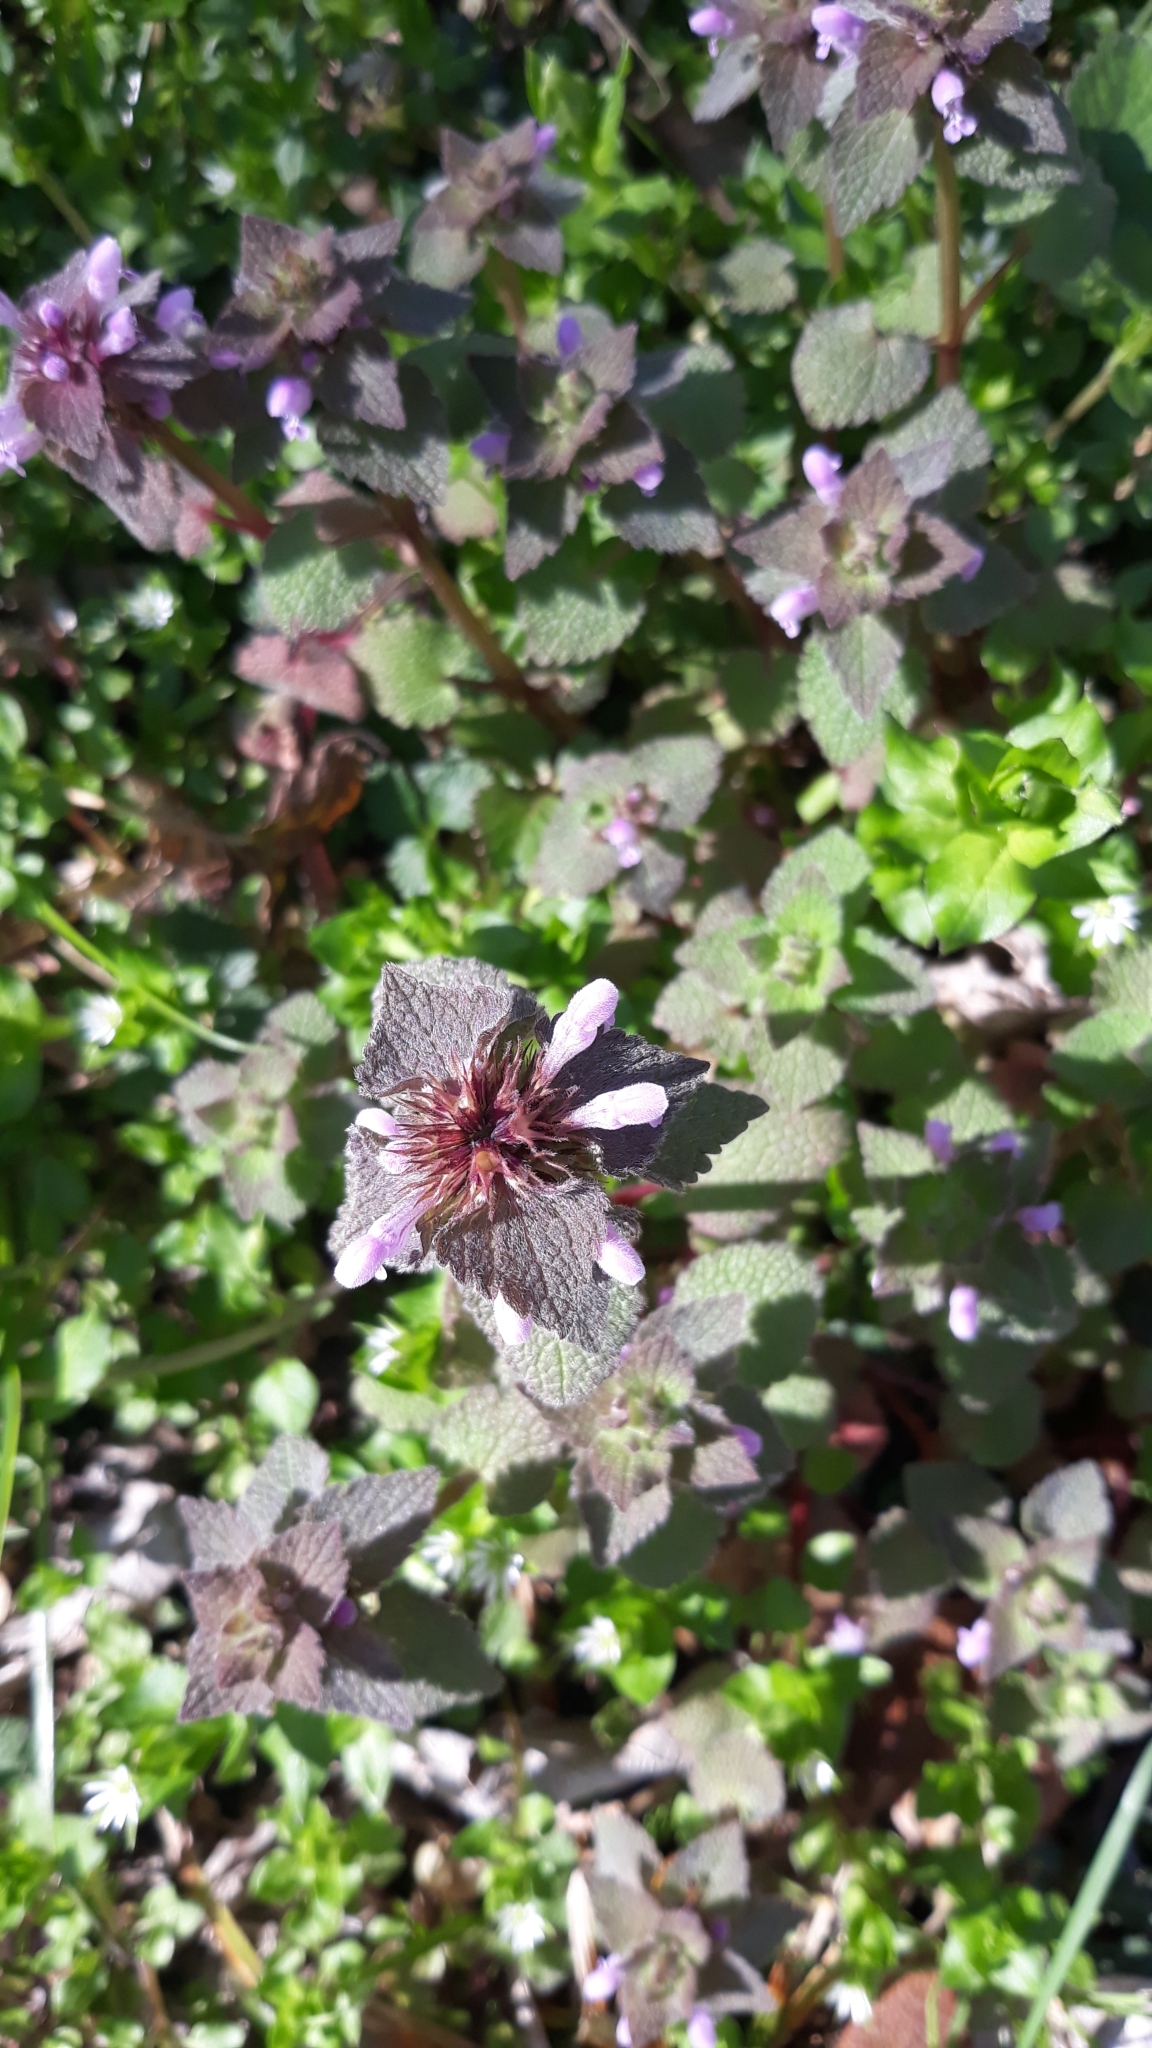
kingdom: Plantae
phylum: Tracheophyta
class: Magnoliopsida
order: Lamiales
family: Lamiaceae
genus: Lamium
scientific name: Lamium purpureum
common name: Red dead-nettle
